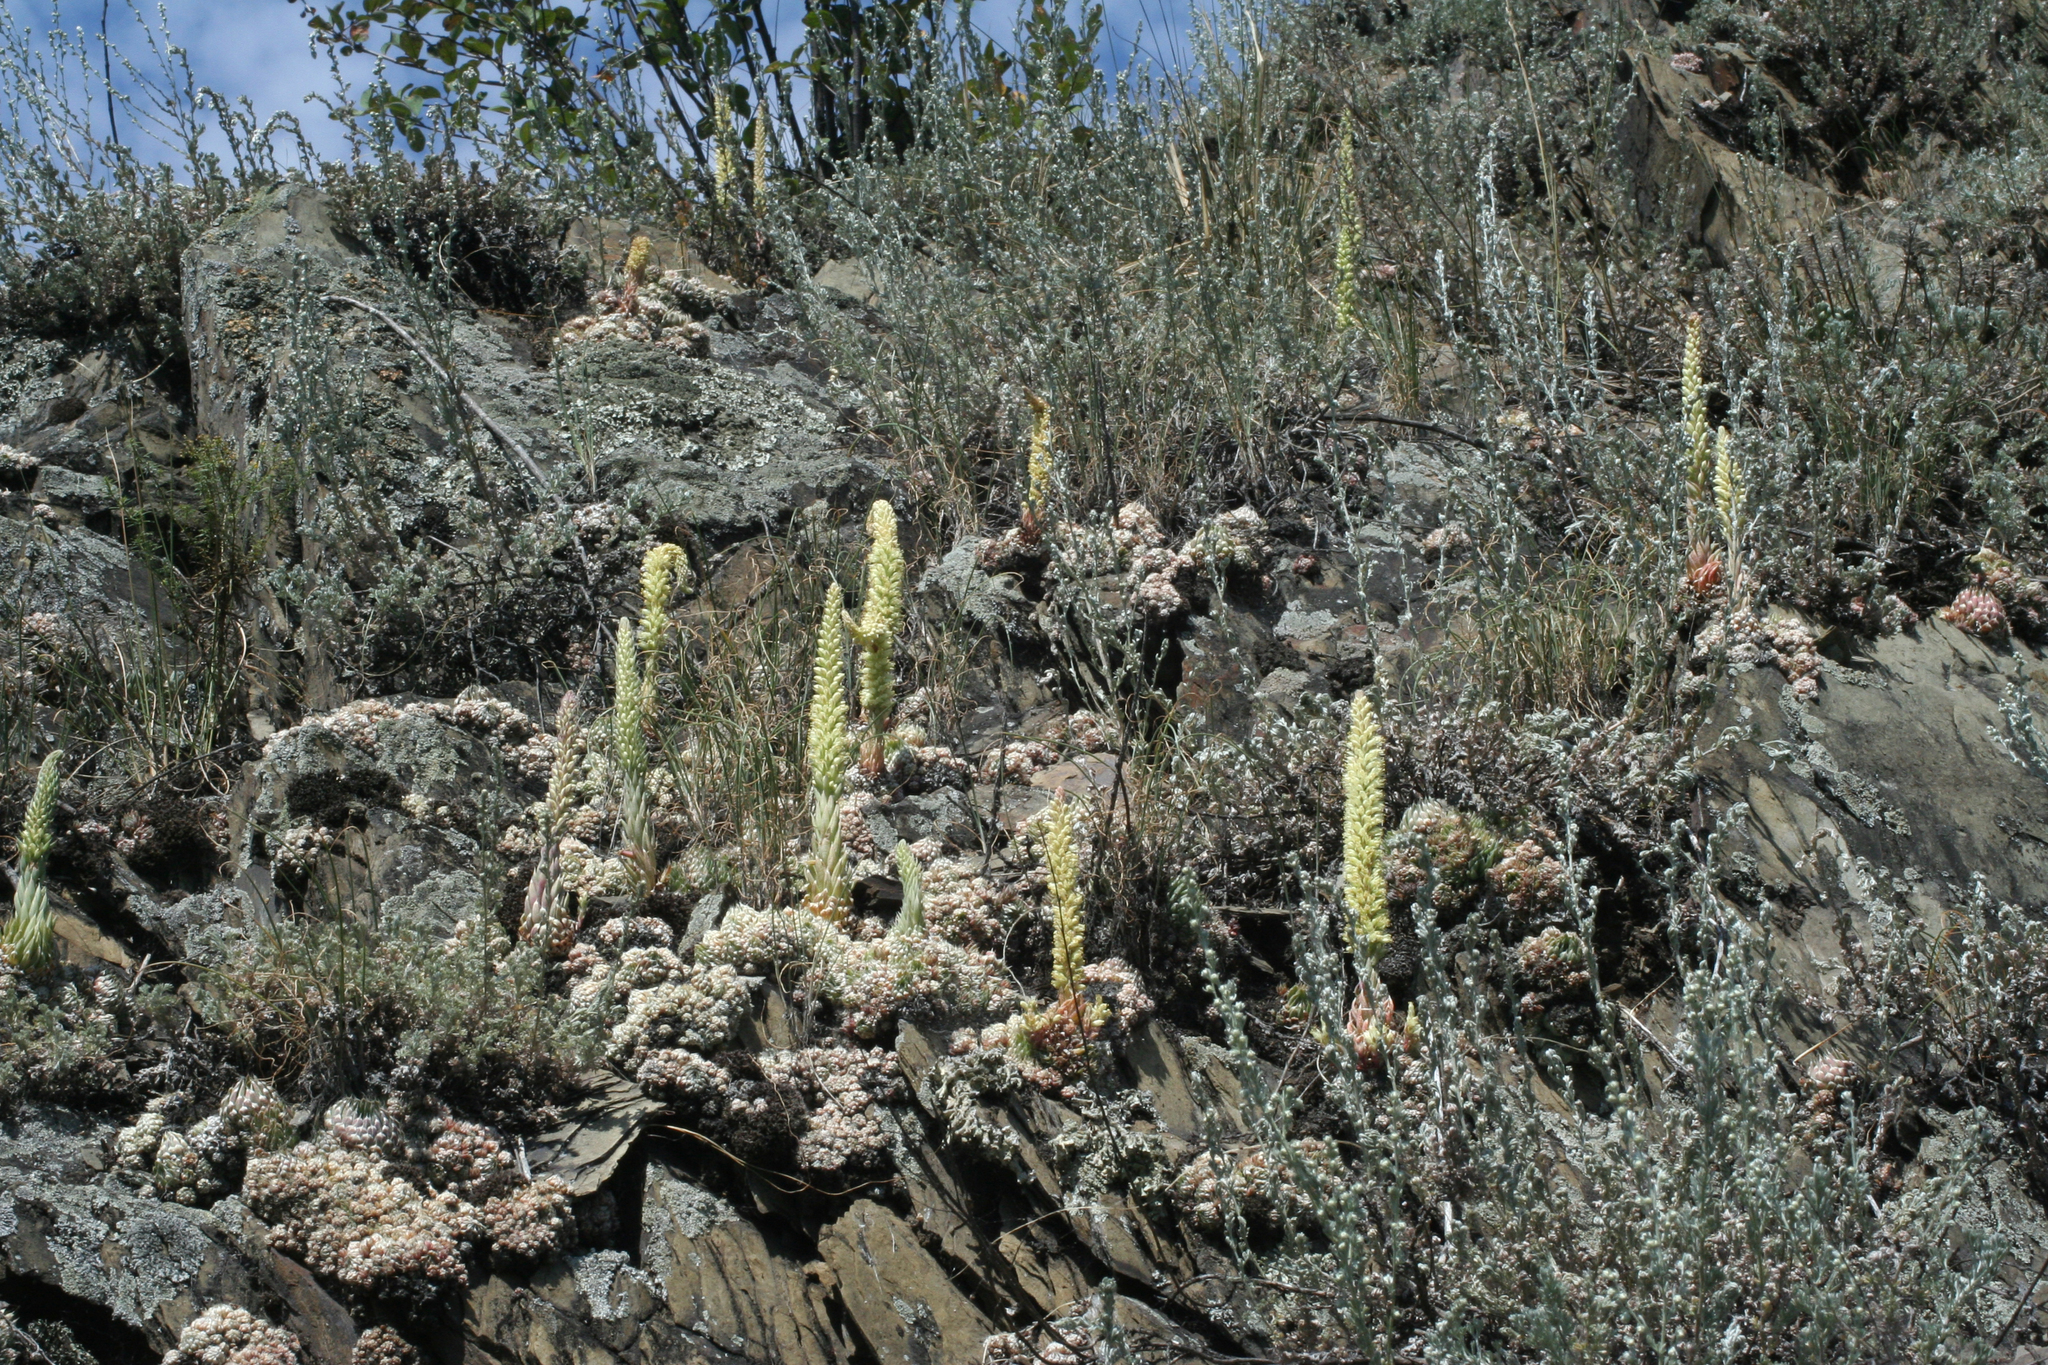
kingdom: Plantae
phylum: Tracheophyta
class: Magnoliopsida
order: Saxifragales
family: Crassulaceae
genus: Orostachys
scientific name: Orostachys spinosa
